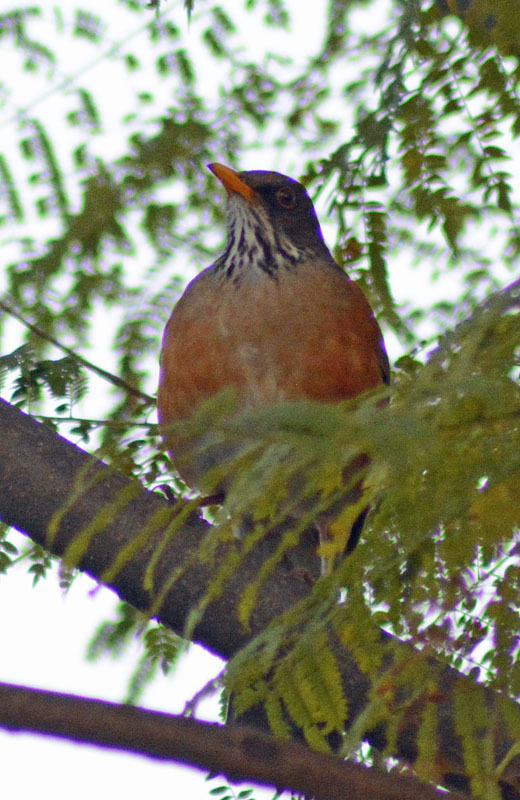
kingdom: Animalia
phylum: Chordata
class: Aves
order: Passeriformes
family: Turdidae
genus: Turdus
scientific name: Turdus rufopalliatus
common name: Rufous-backed robin
